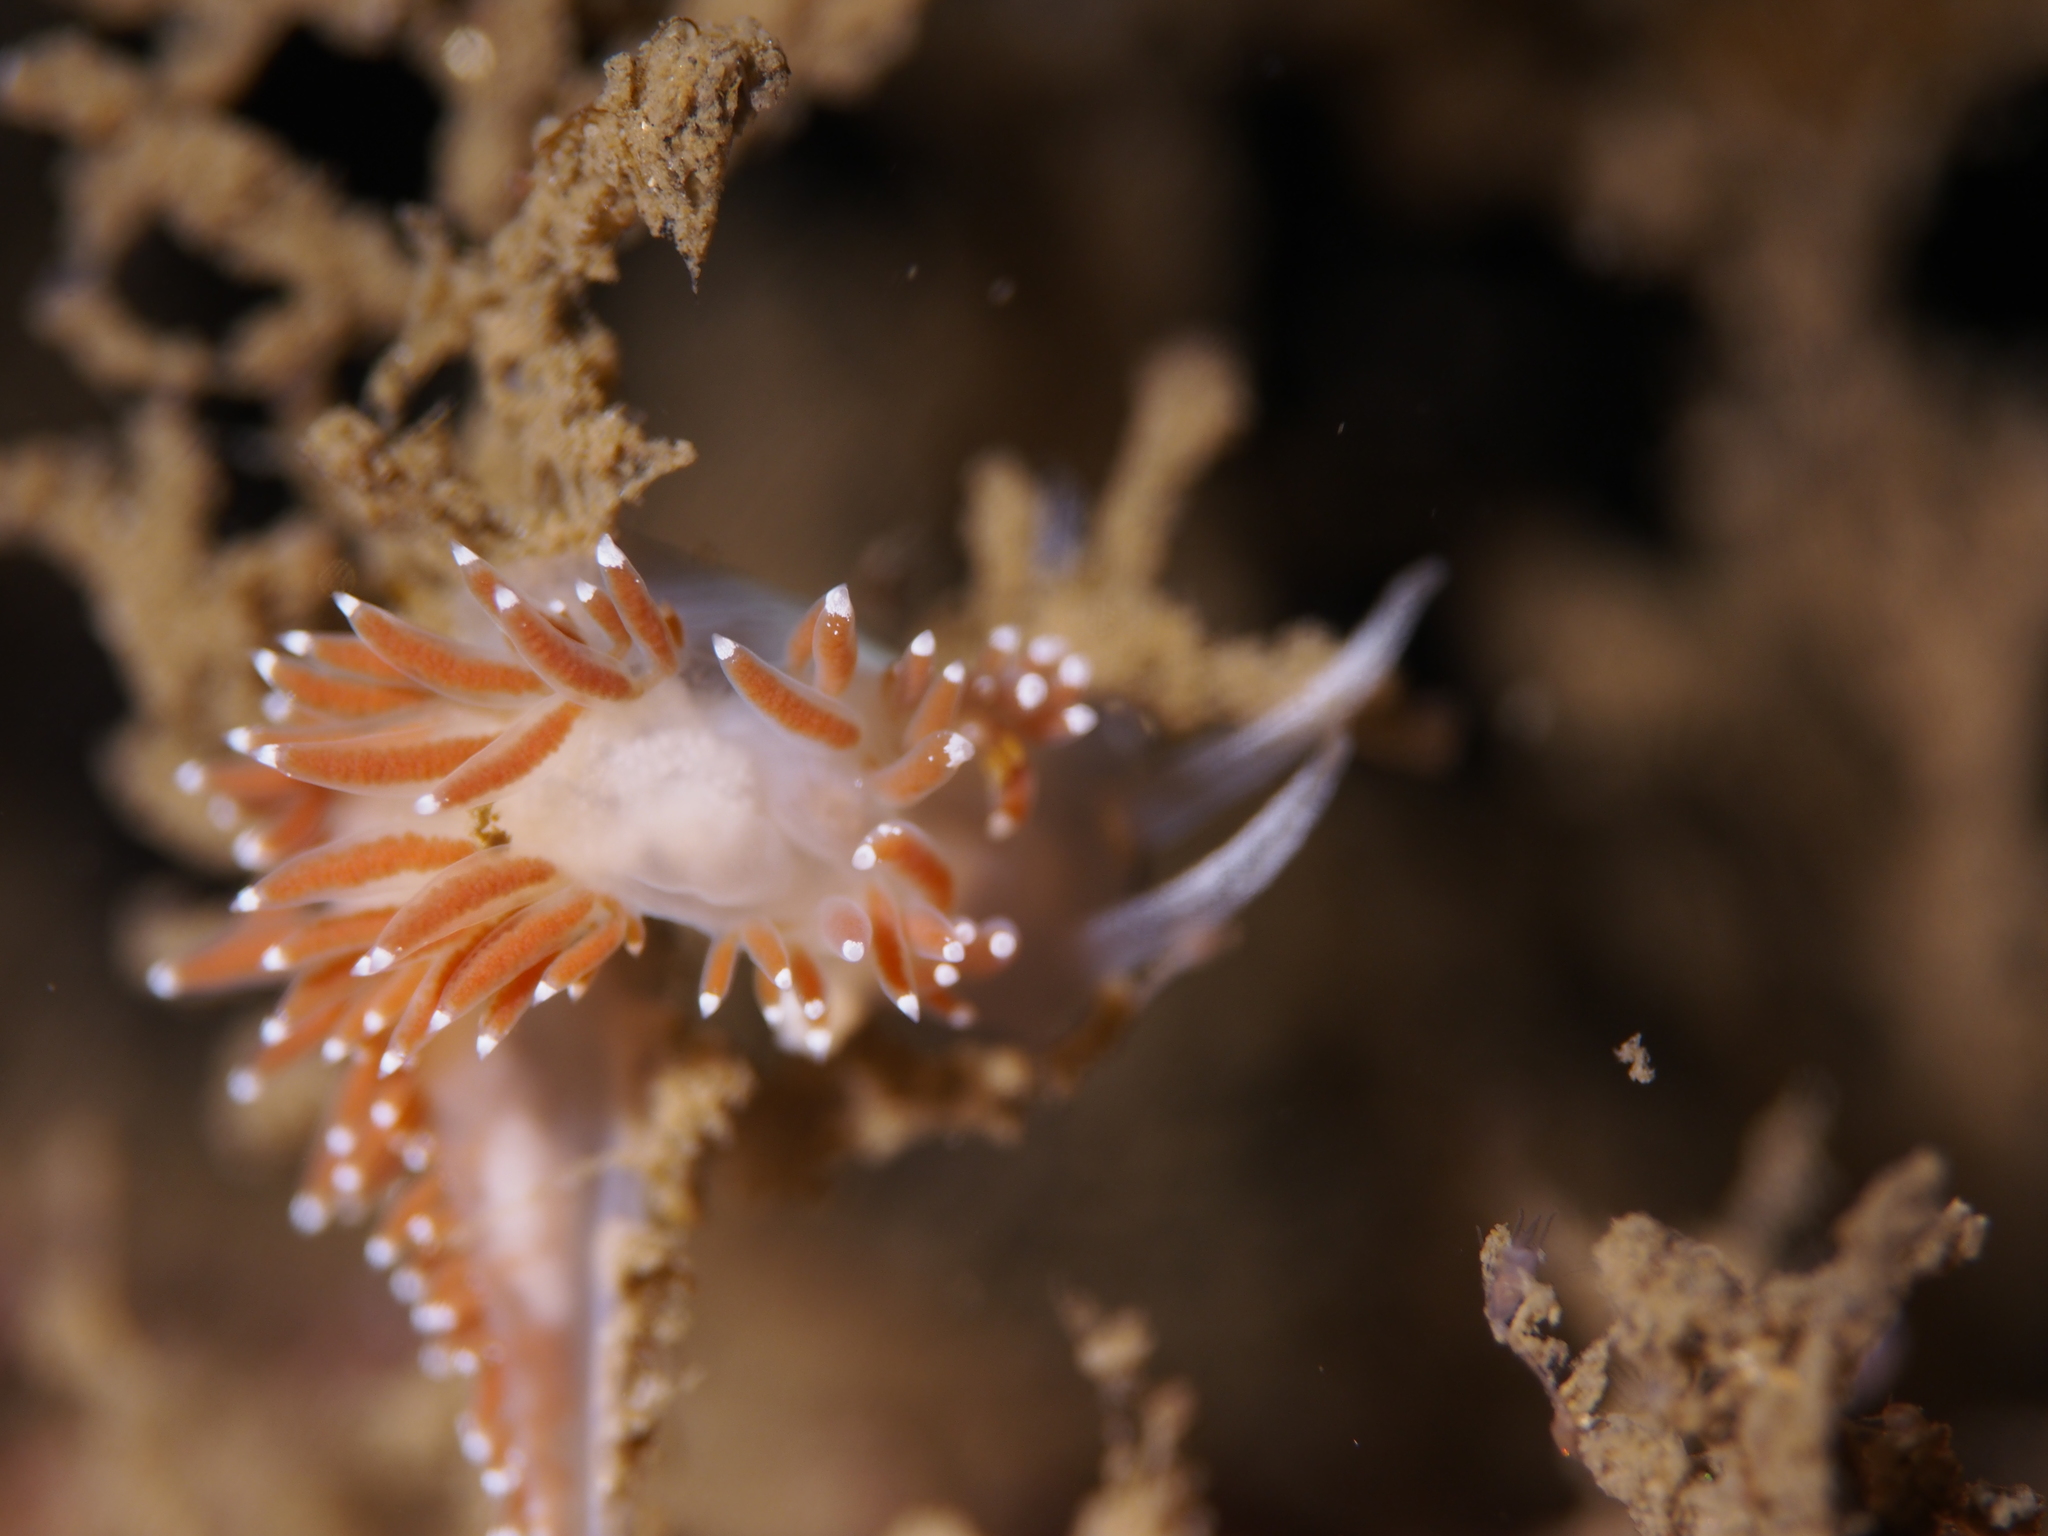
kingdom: Animalia
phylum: Mollusca
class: Gastropoda
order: Nudibranchia
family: Coryphellidae
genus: Coryphella
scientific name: Coryphella verrucosa
